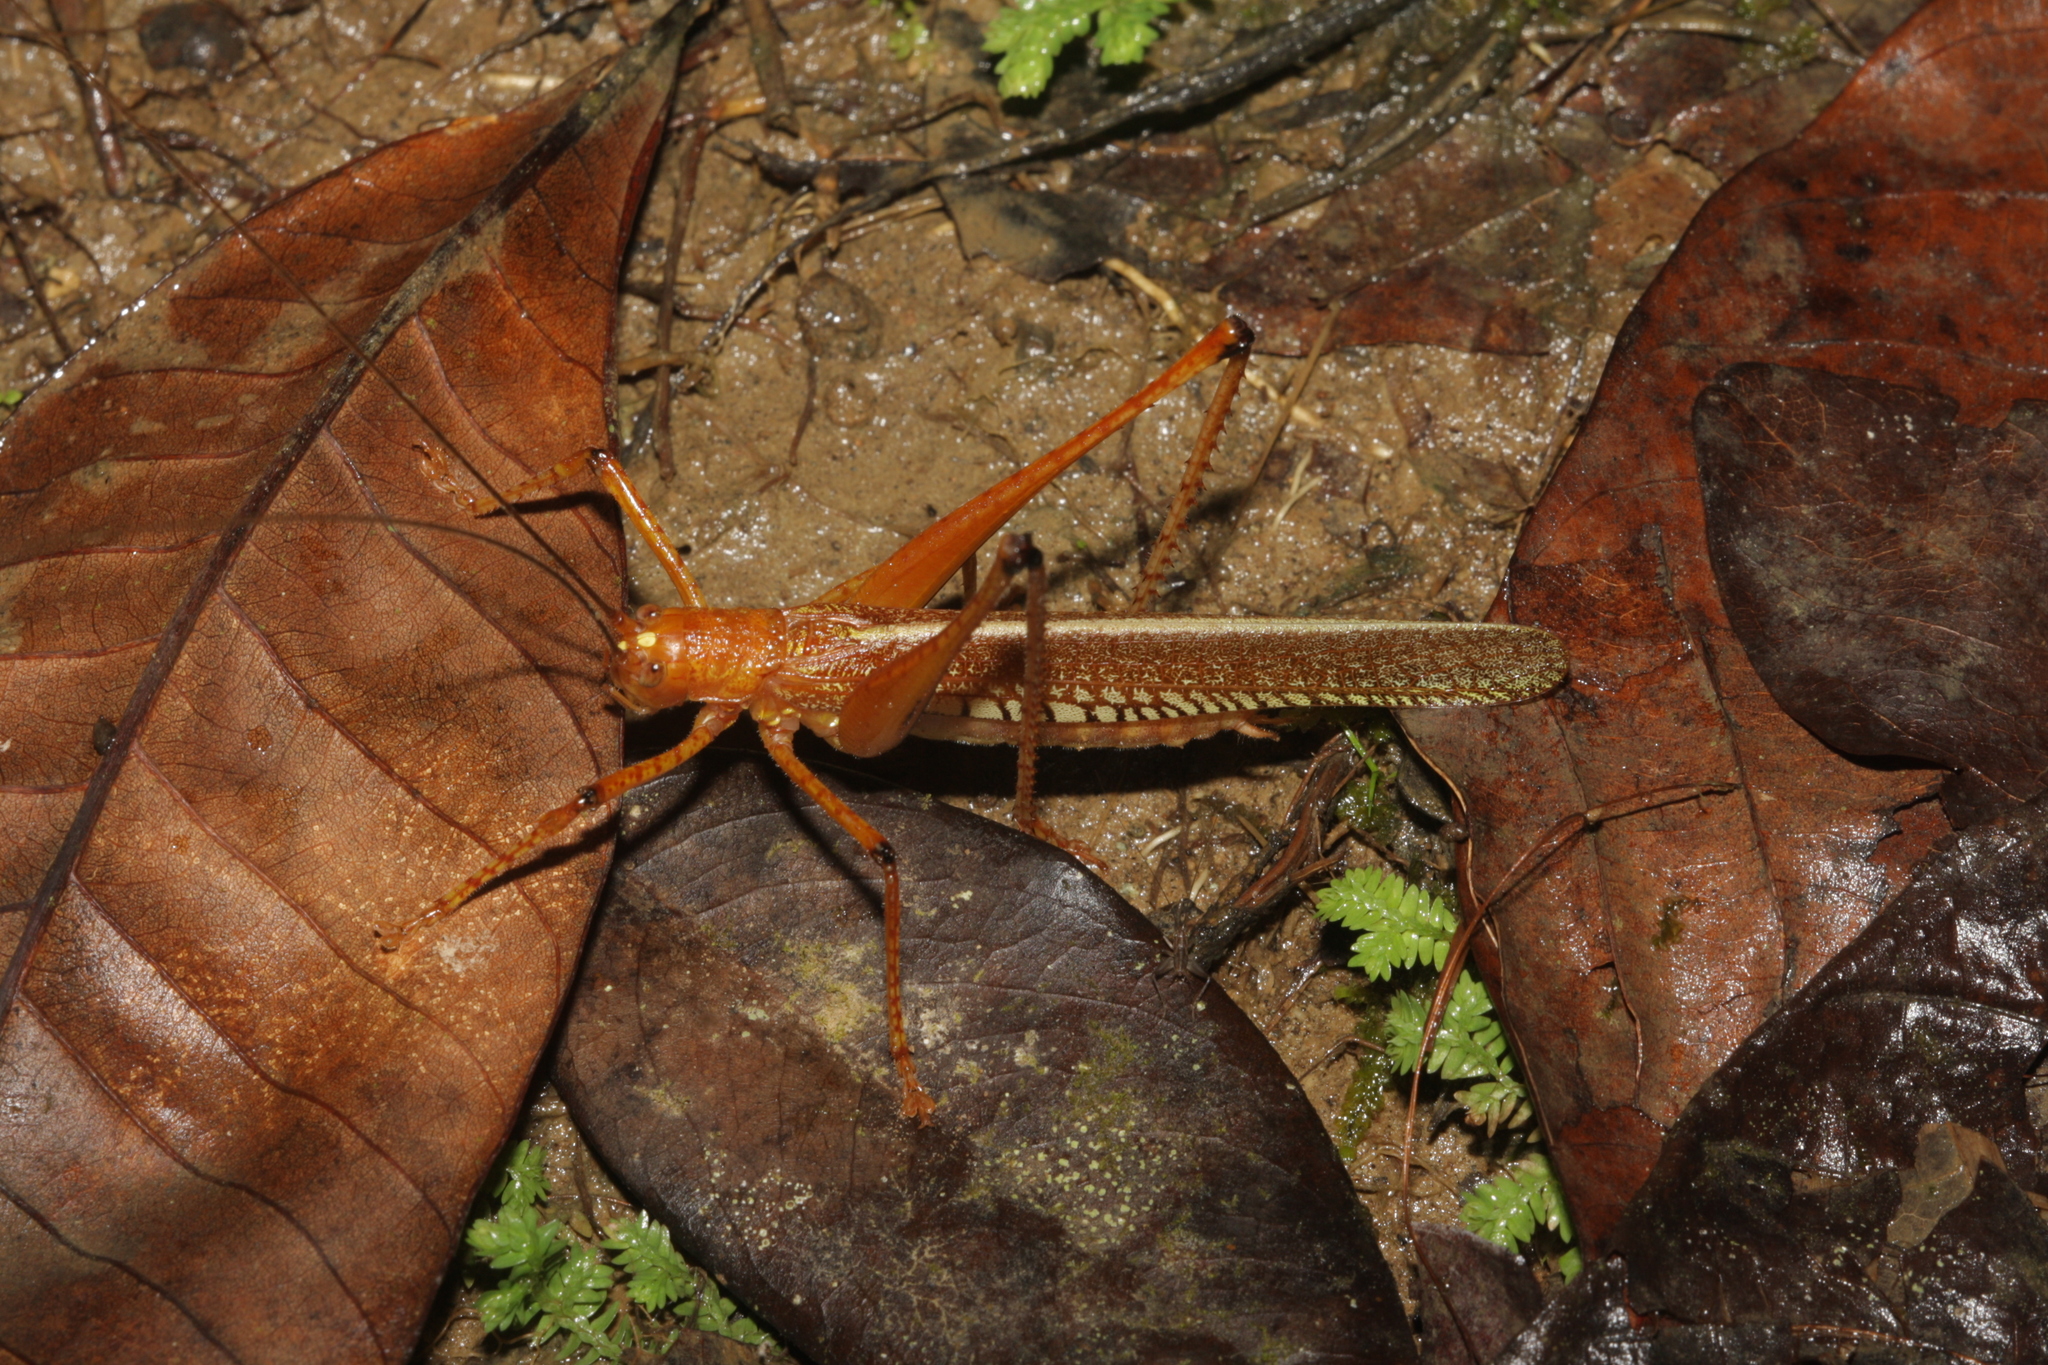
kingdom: Animalia
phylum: Arthropoda
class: Insecta
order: Orthoptera
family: Tettigoniidae
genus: Ischnomela
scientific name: Ischnomela gracilis
